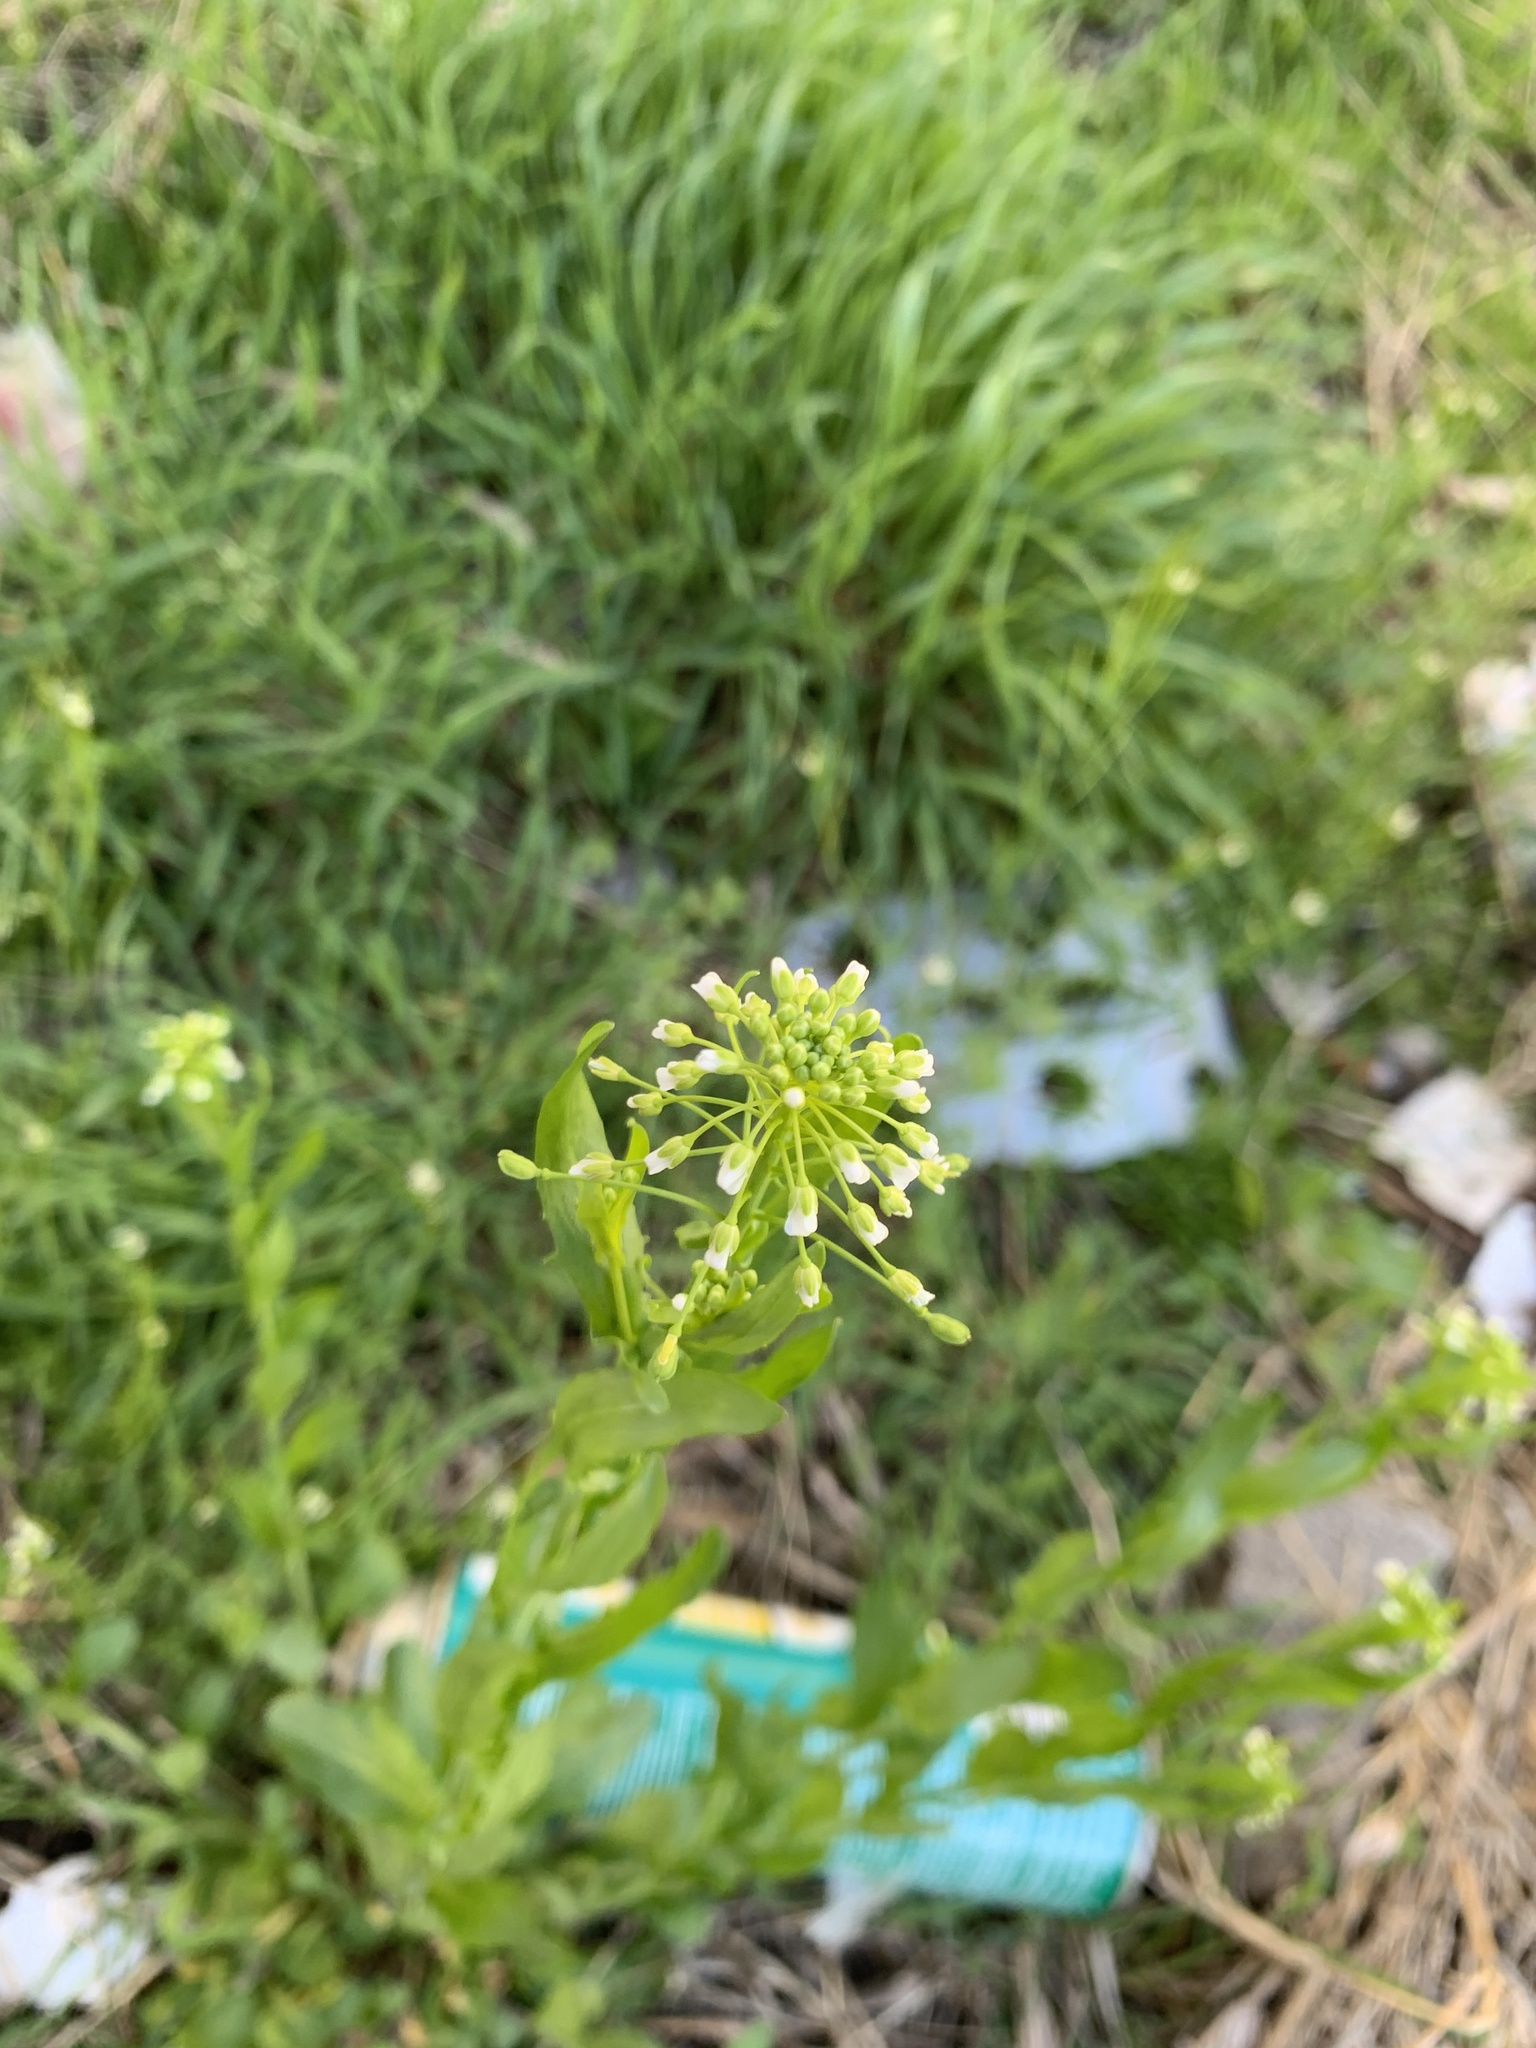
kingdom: Plantae
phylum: Tracheophyta
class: Magnoliopsida
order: Brassicales
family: Brassicaceae
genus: Mummenhoffia
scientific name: Mummenhoffia alliacea
